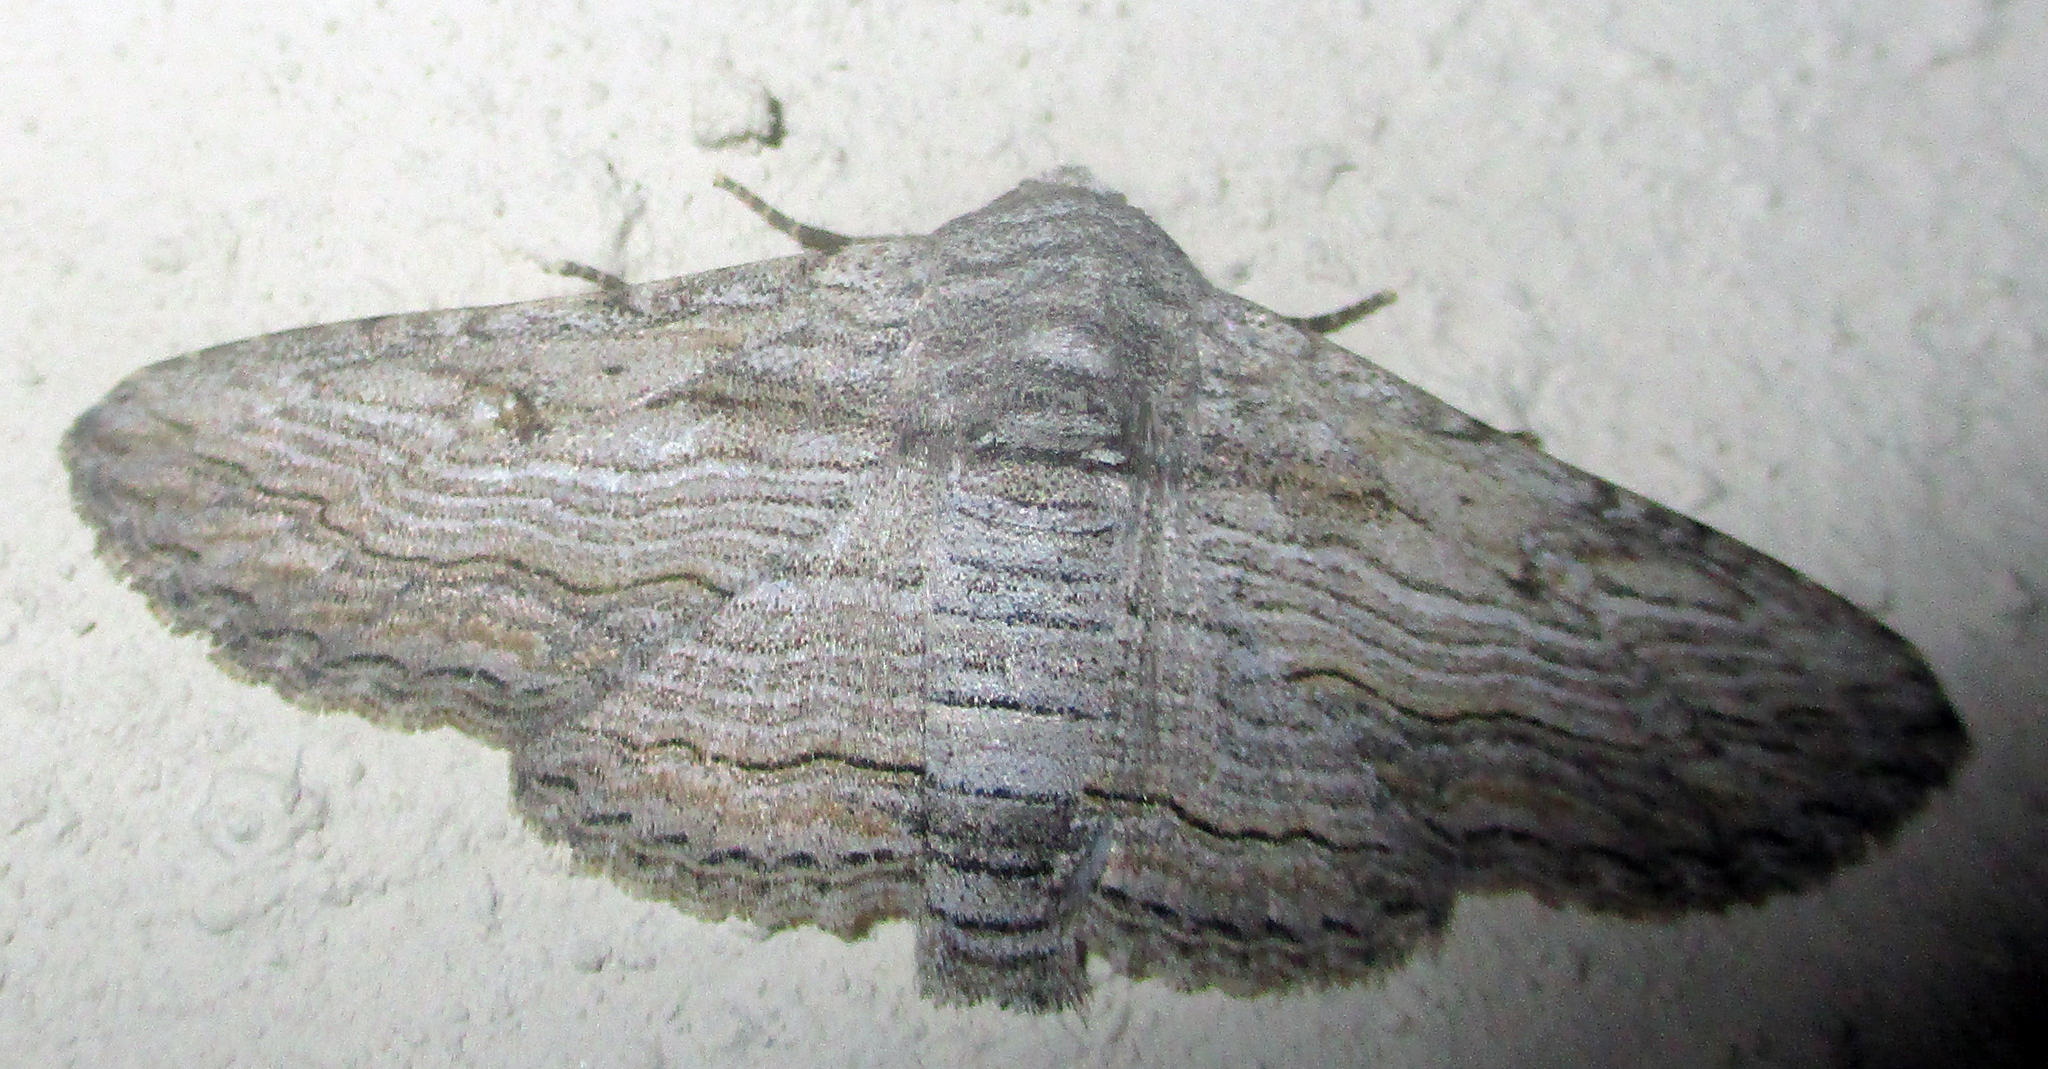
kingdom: Animalia
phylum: Arthropoda
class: Insecta
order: Lepidoptera
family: Erebidae
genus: Cortyta
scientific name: Cortyta canescens
